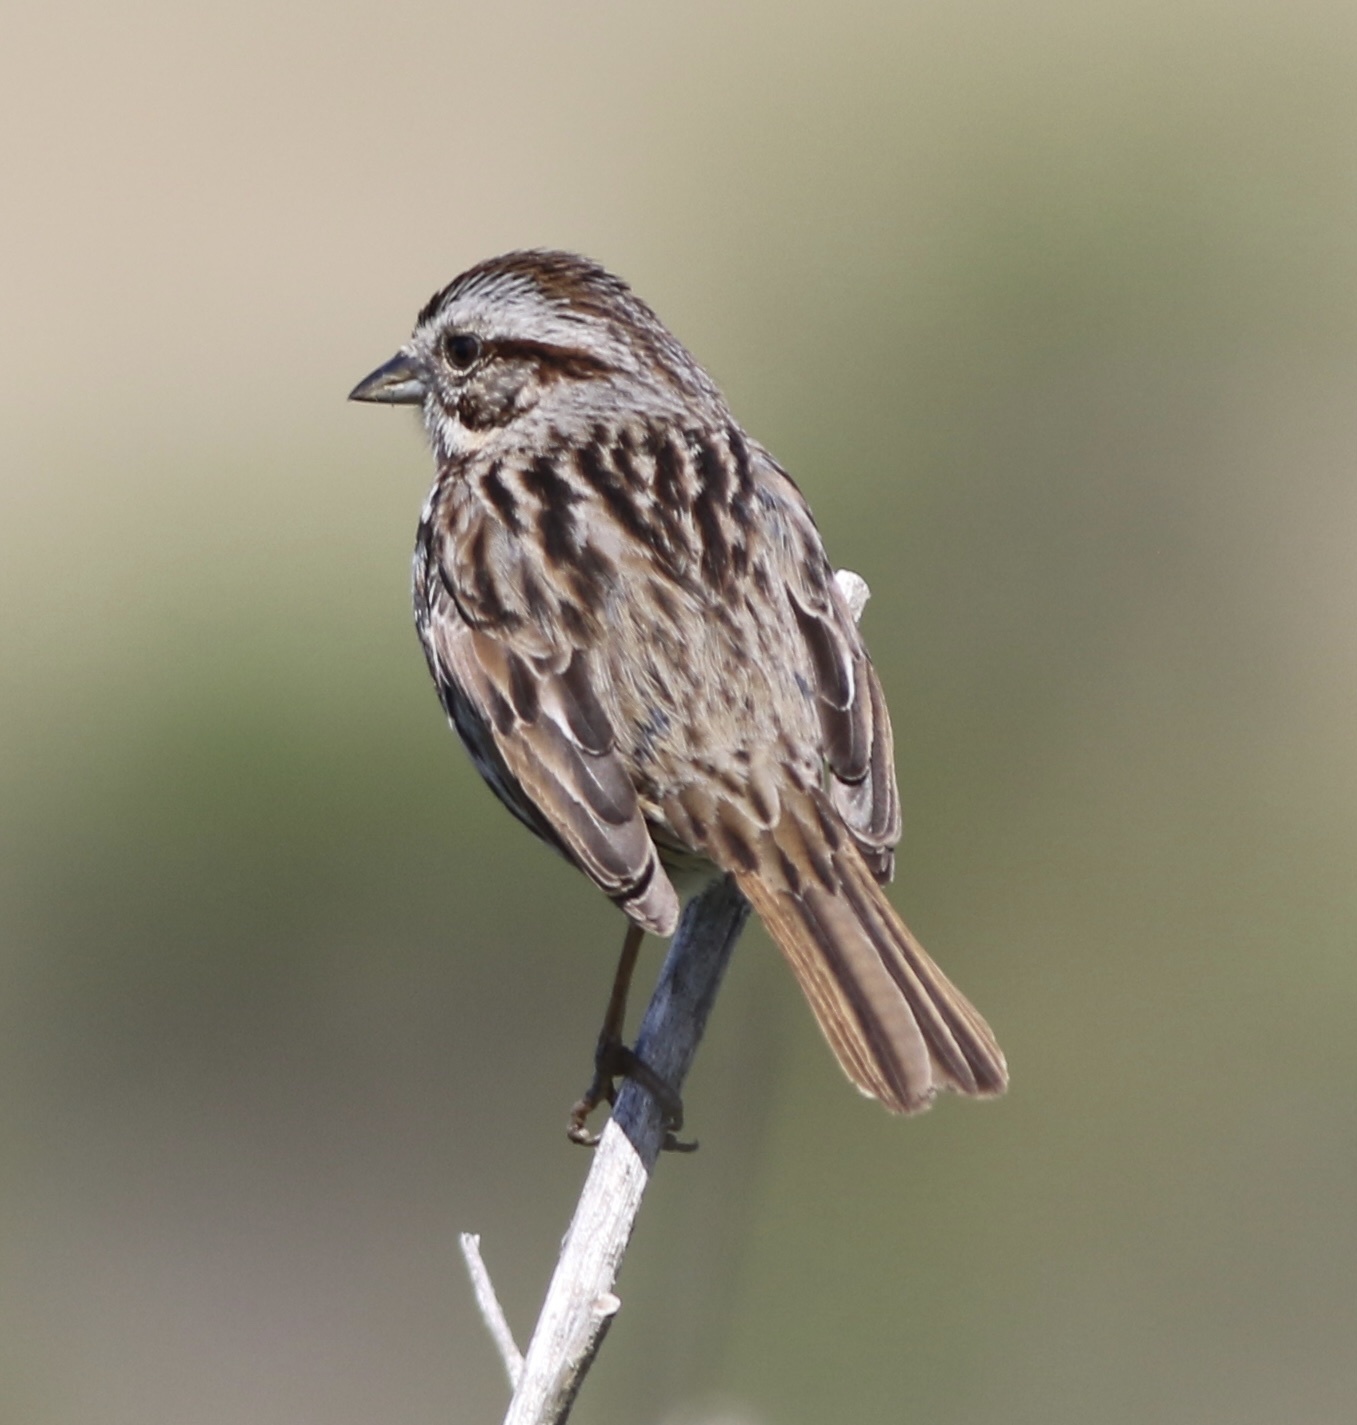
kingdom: Animalia
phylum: Chordata
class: Aves
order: Passeriformes
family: Passerellidae
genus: Melospiza
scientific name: Melospiza melodia
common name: Song sparrow
